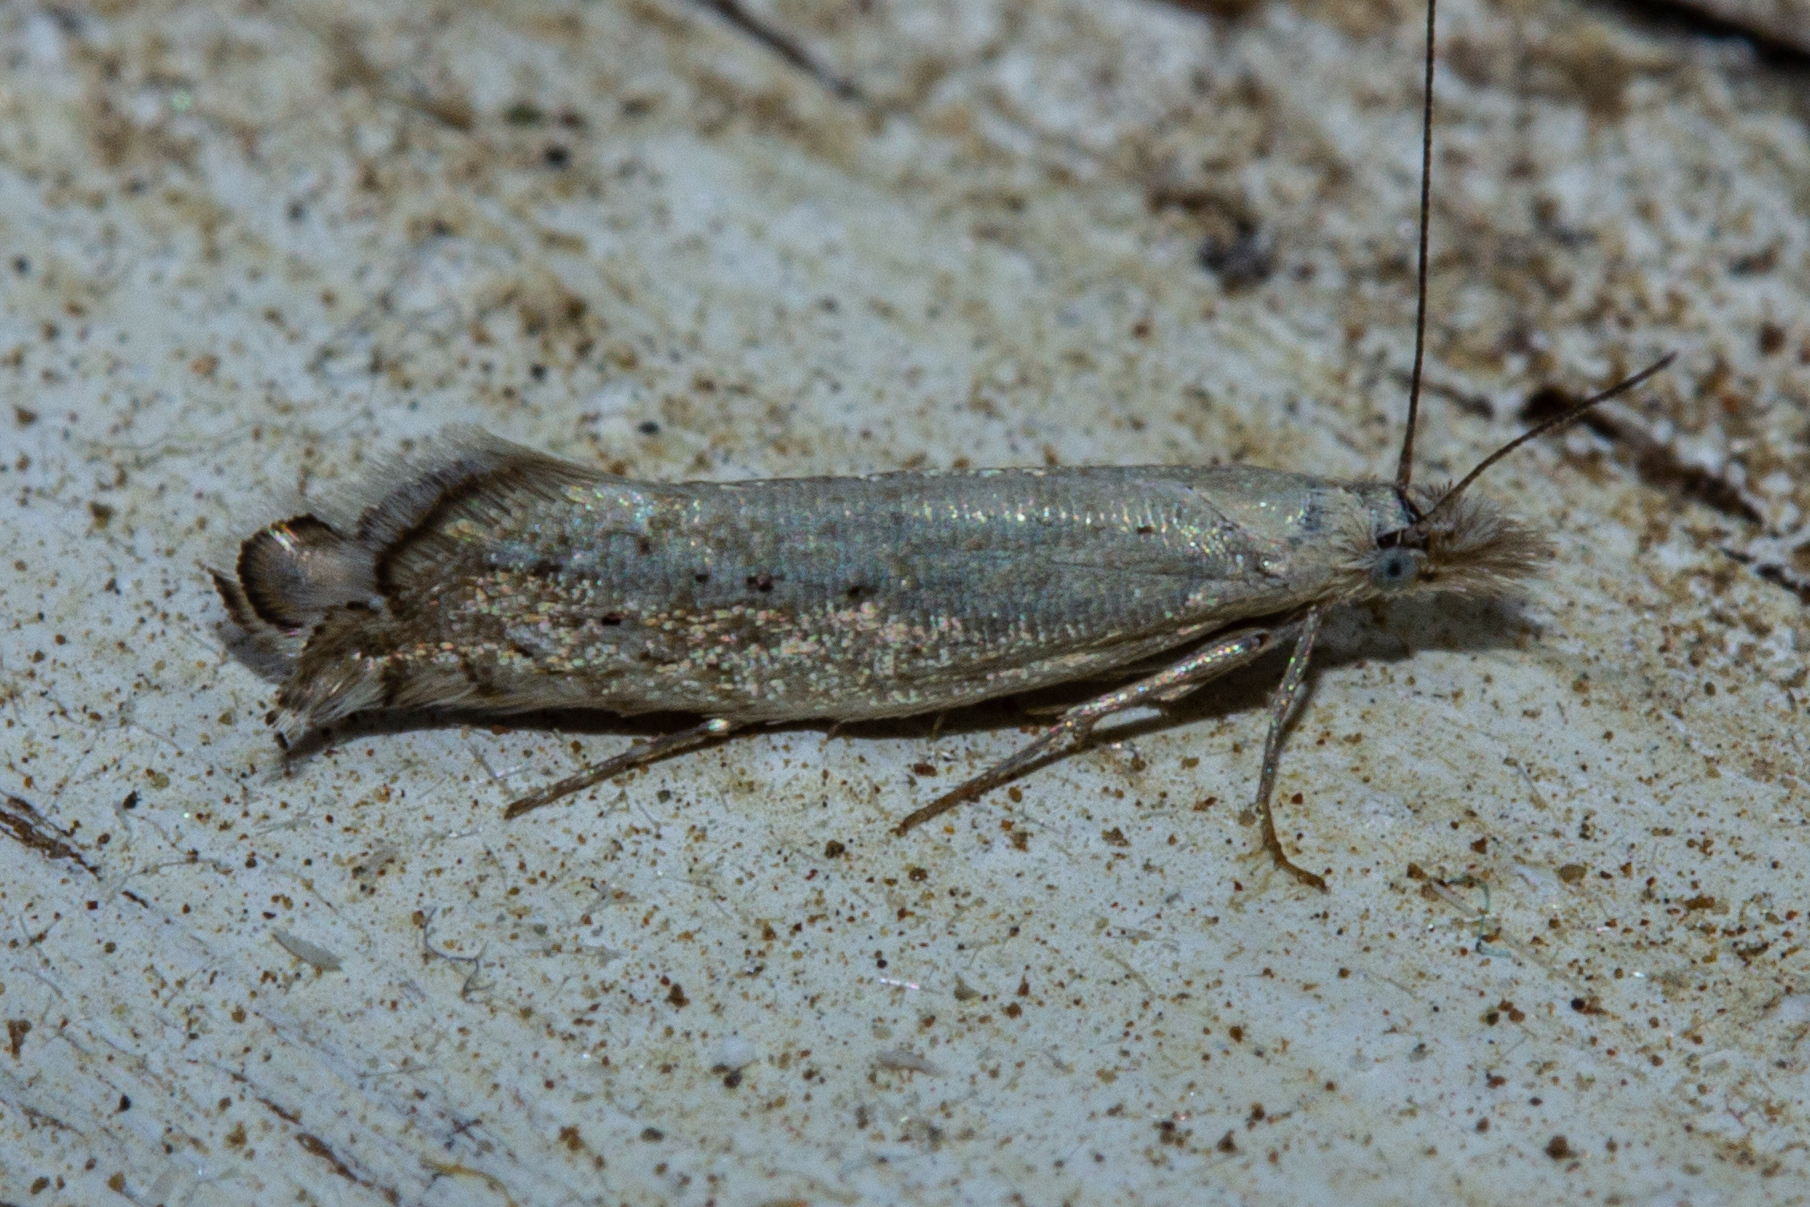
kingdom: Animalia
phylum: Arthropoda
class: Insecta
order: Lepidoptera
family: Glyphipterigidae
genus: Glyphipterix
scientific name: Glyphipterix achlyoessa
